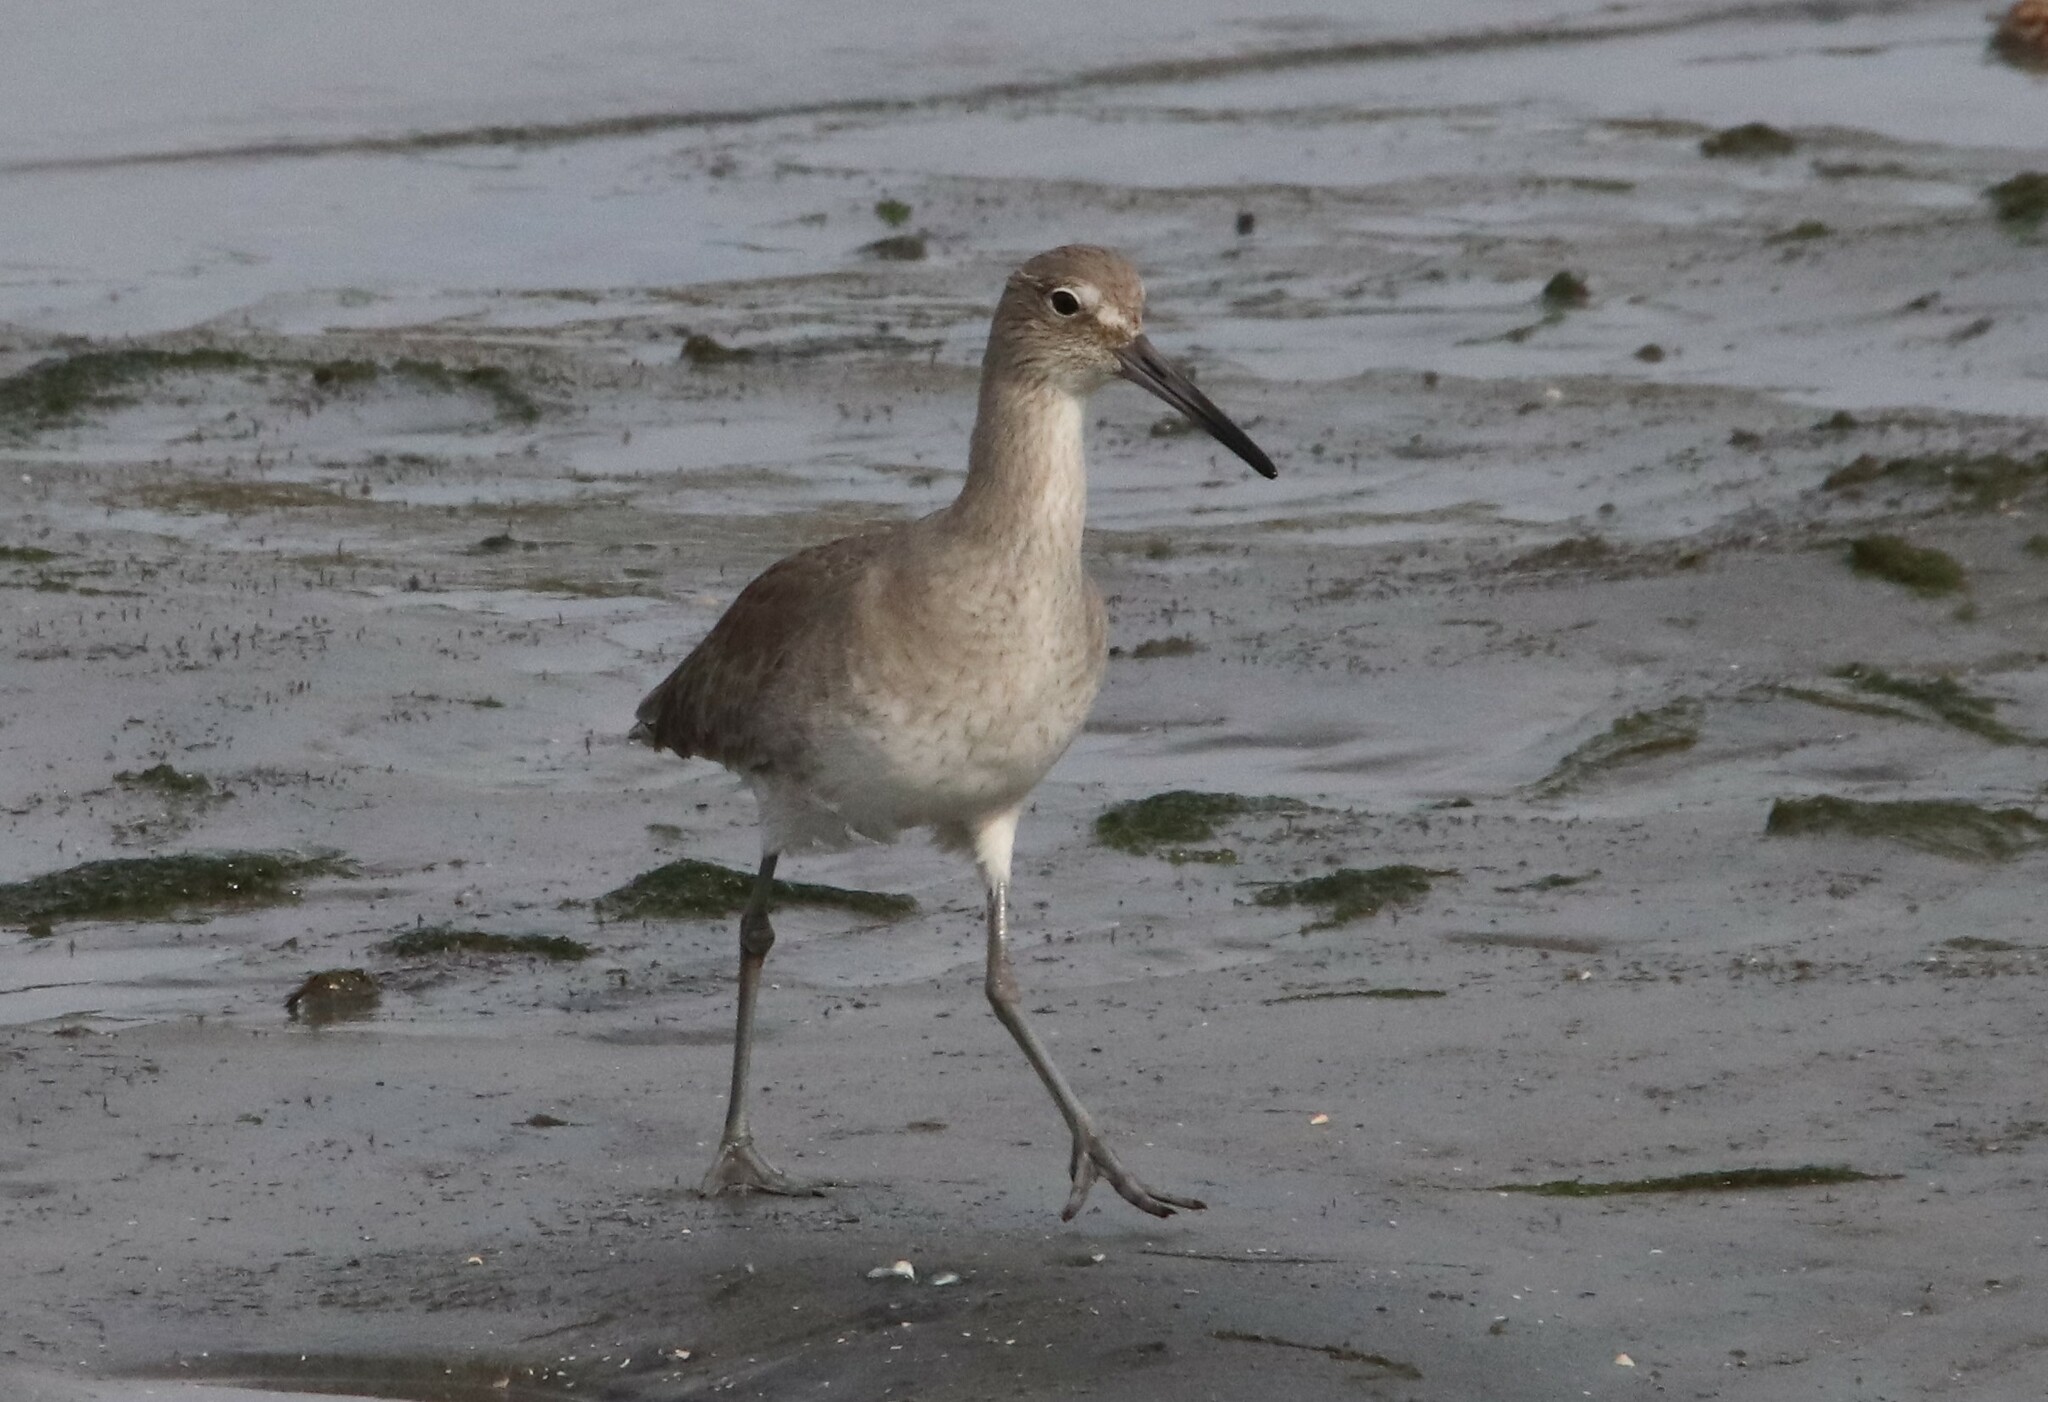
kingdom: Animalia
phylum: Chordata
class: Aves
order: Charadriiformes
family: Scolopacidae
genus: Tringa
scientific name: Tringa semipalmata
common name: Willet
